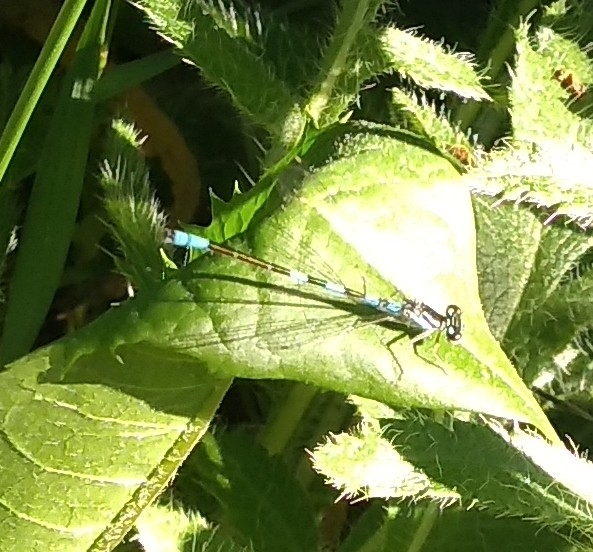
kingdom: Animalia
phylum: Arthropoda
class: Insecta
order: Odonata
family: Coenagrionidae
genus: Coenagrion
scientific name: Coenagrion resolutum
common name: Taiga bluet
